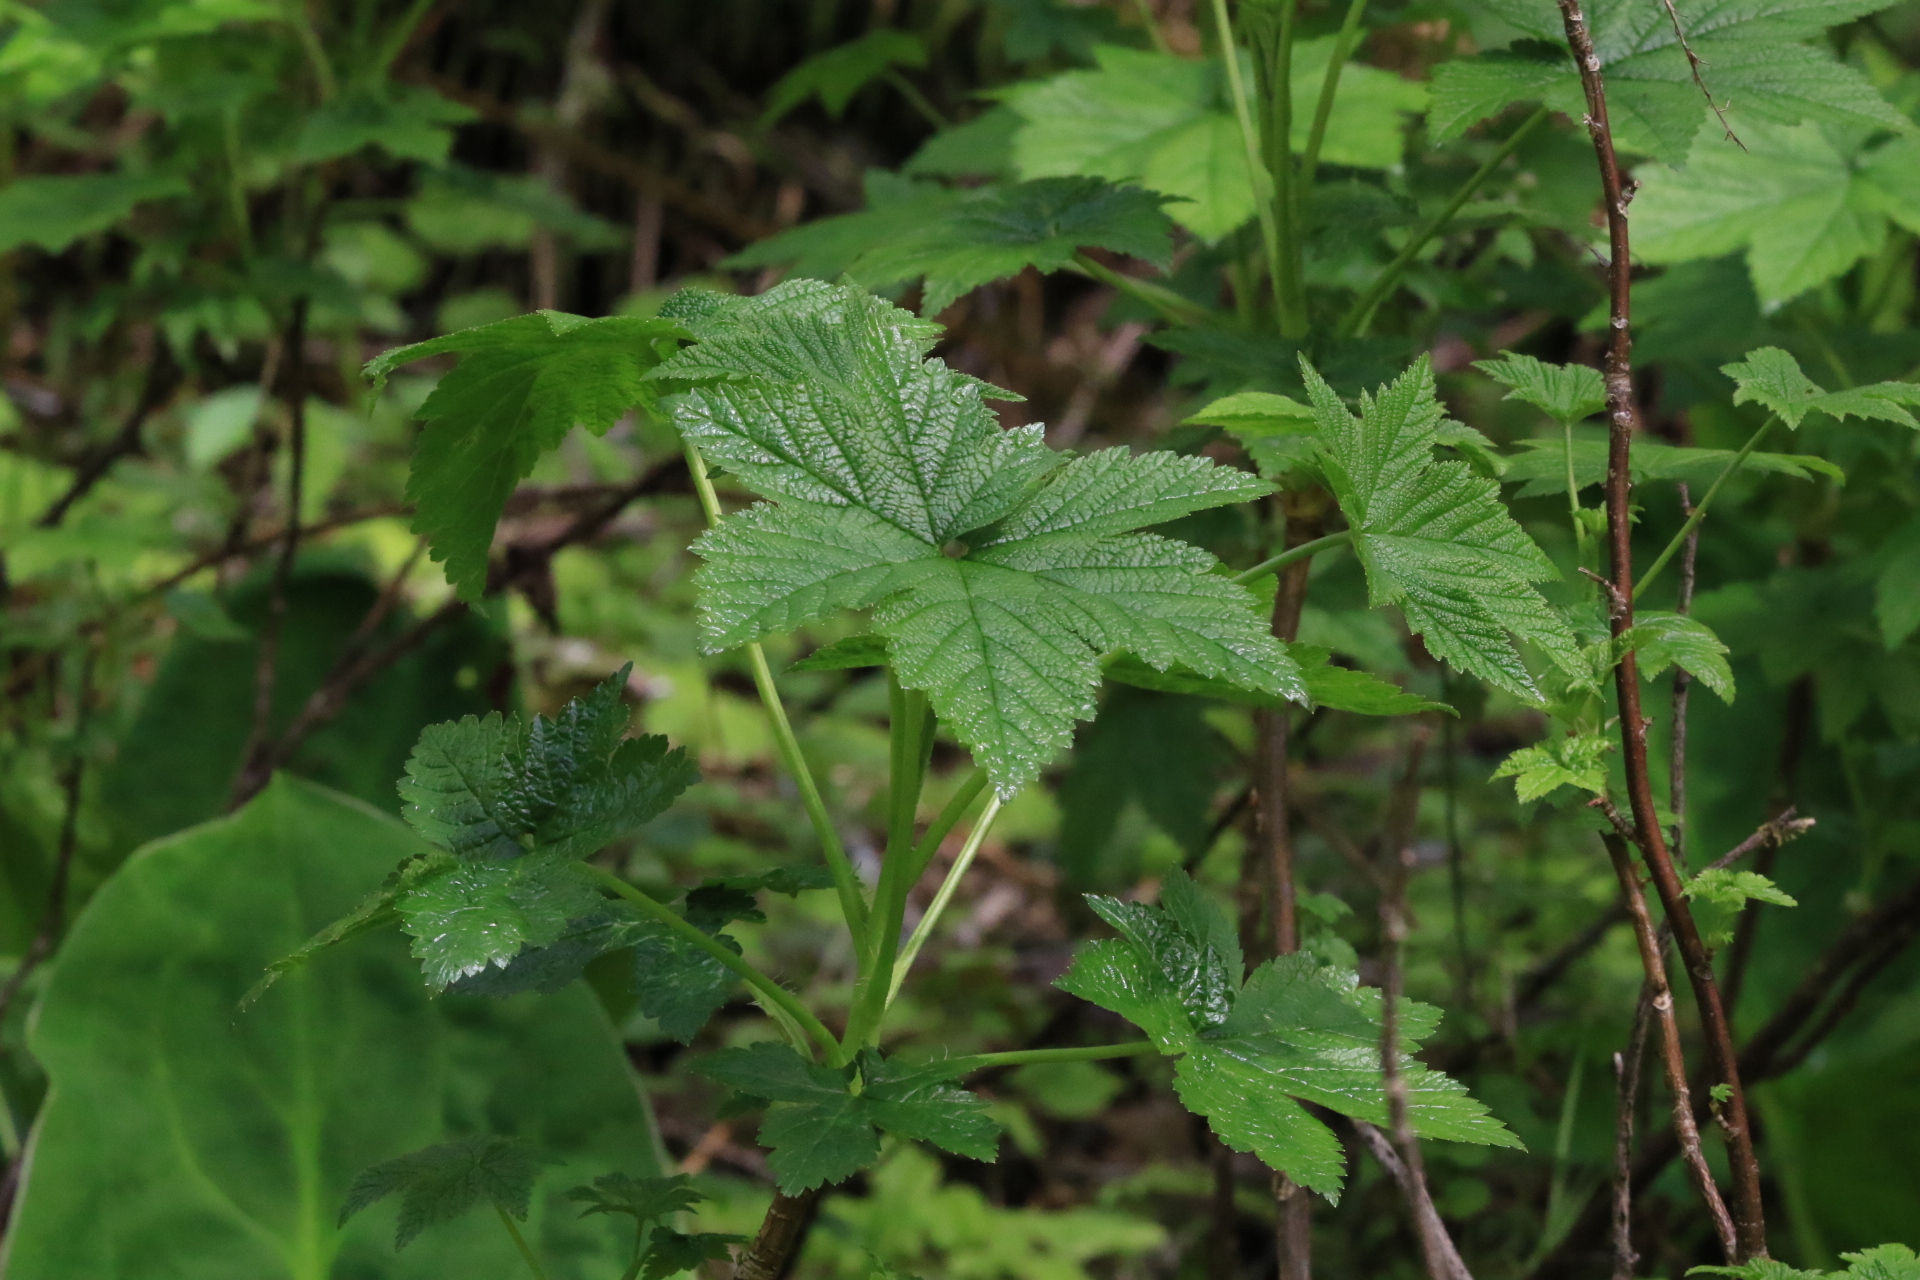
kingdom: Plantae
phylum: Tracheophyta
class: Magnoliopsida
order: Saxifragales
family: Grossulariaceae
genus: Ribes
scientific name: Ribes bracteosum
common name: California black currant
